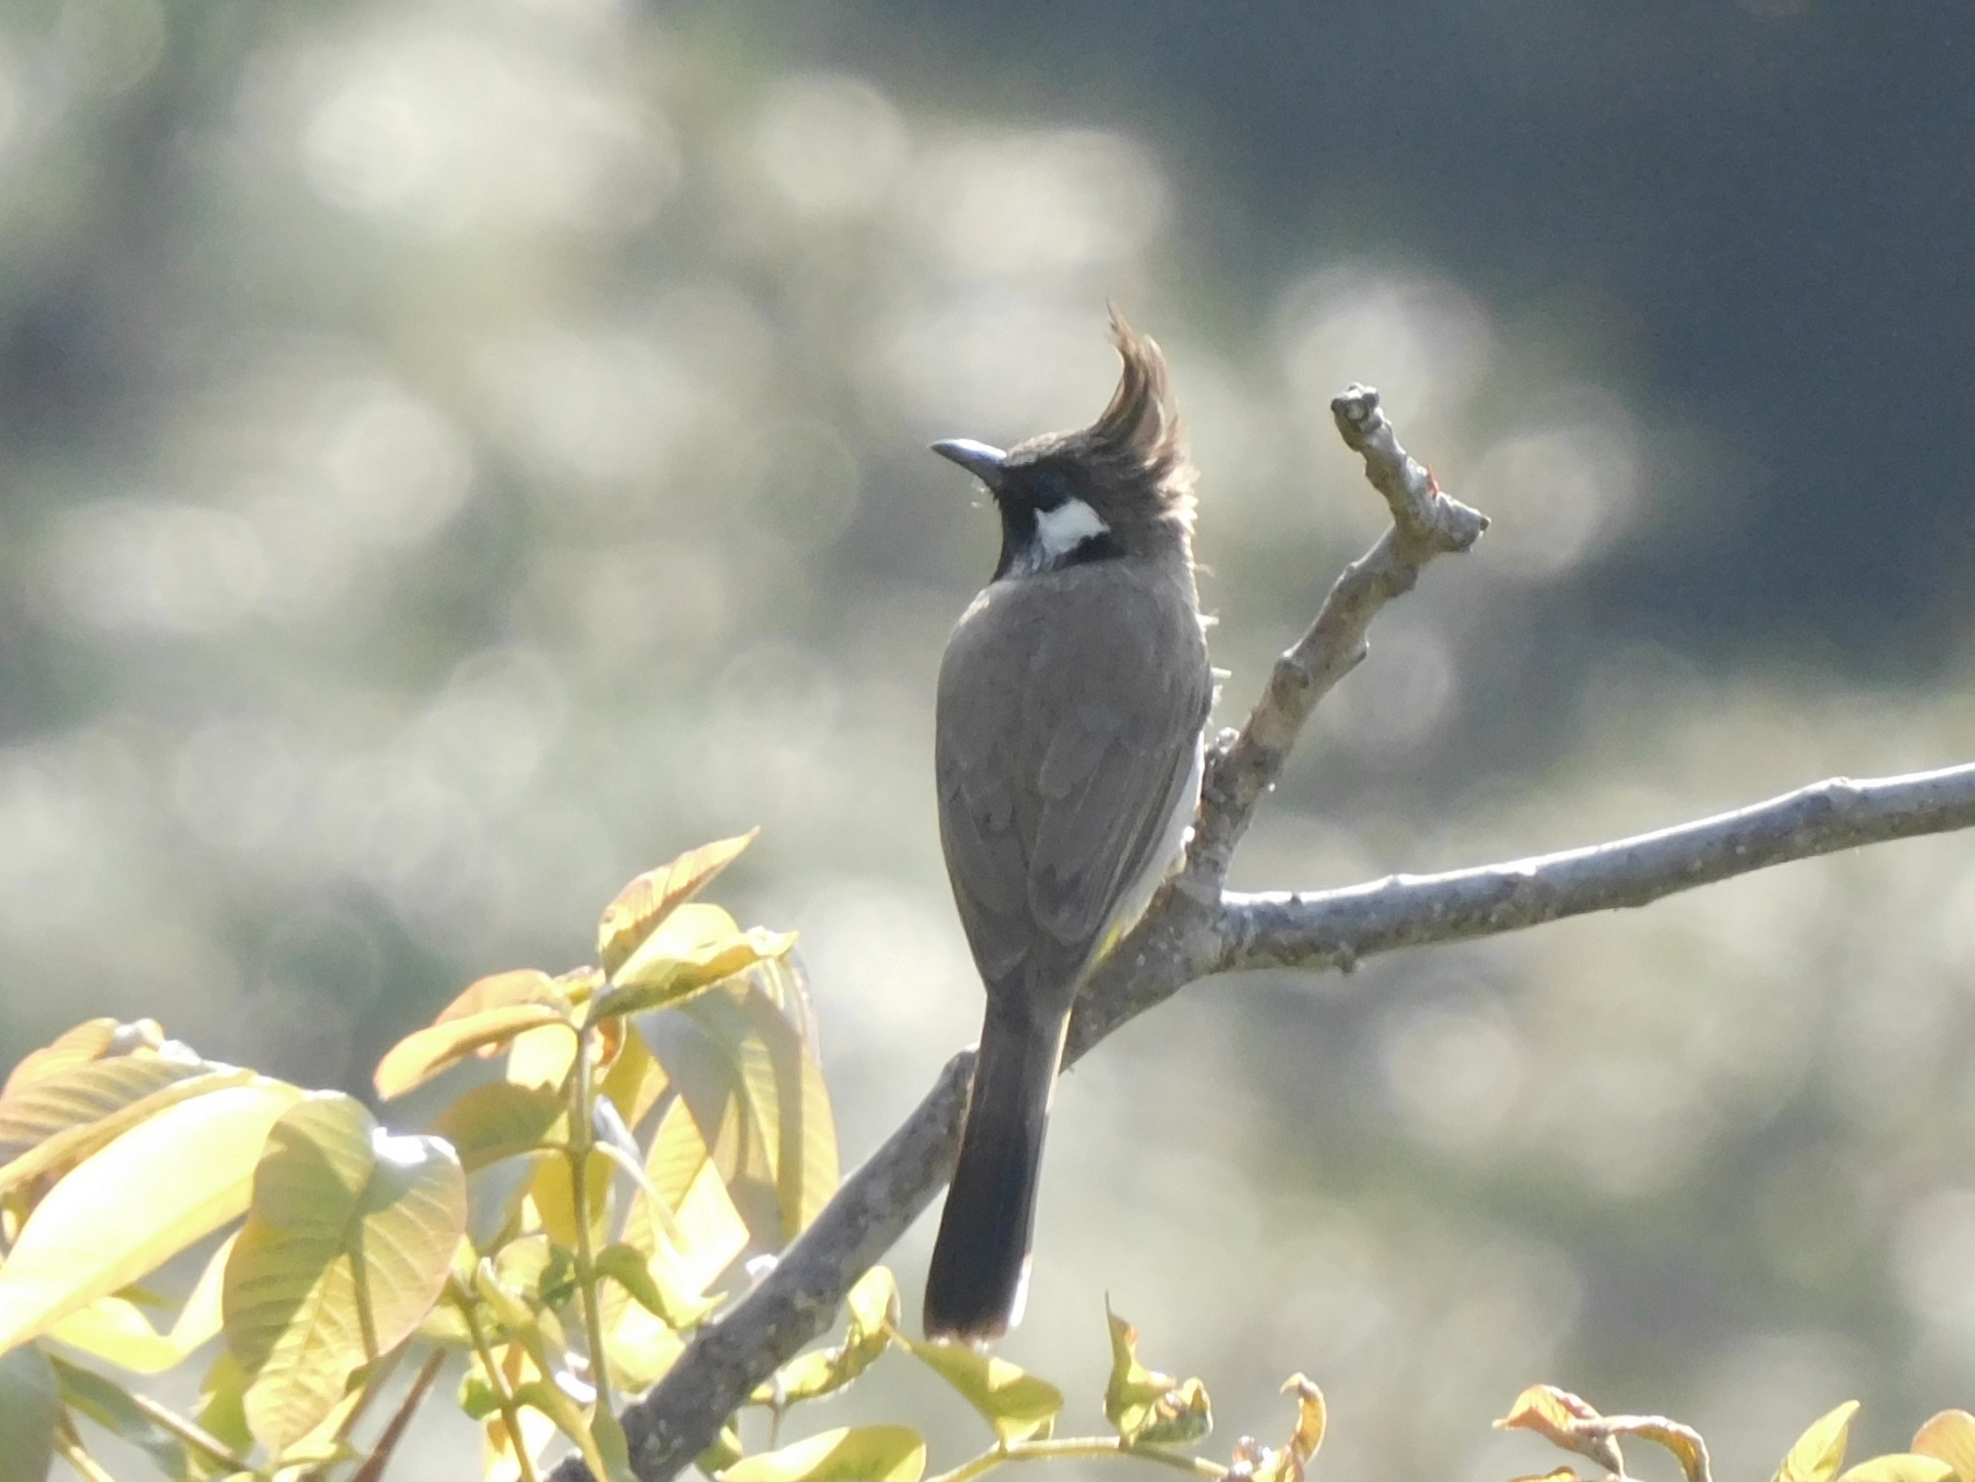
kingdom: Animalia
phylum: Chordata
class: Aves
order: Passeriformes
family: Pycnonotidae
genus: Pycnonotus
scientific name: Pycnonotus leucogenys
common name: Himalayan bulbul
